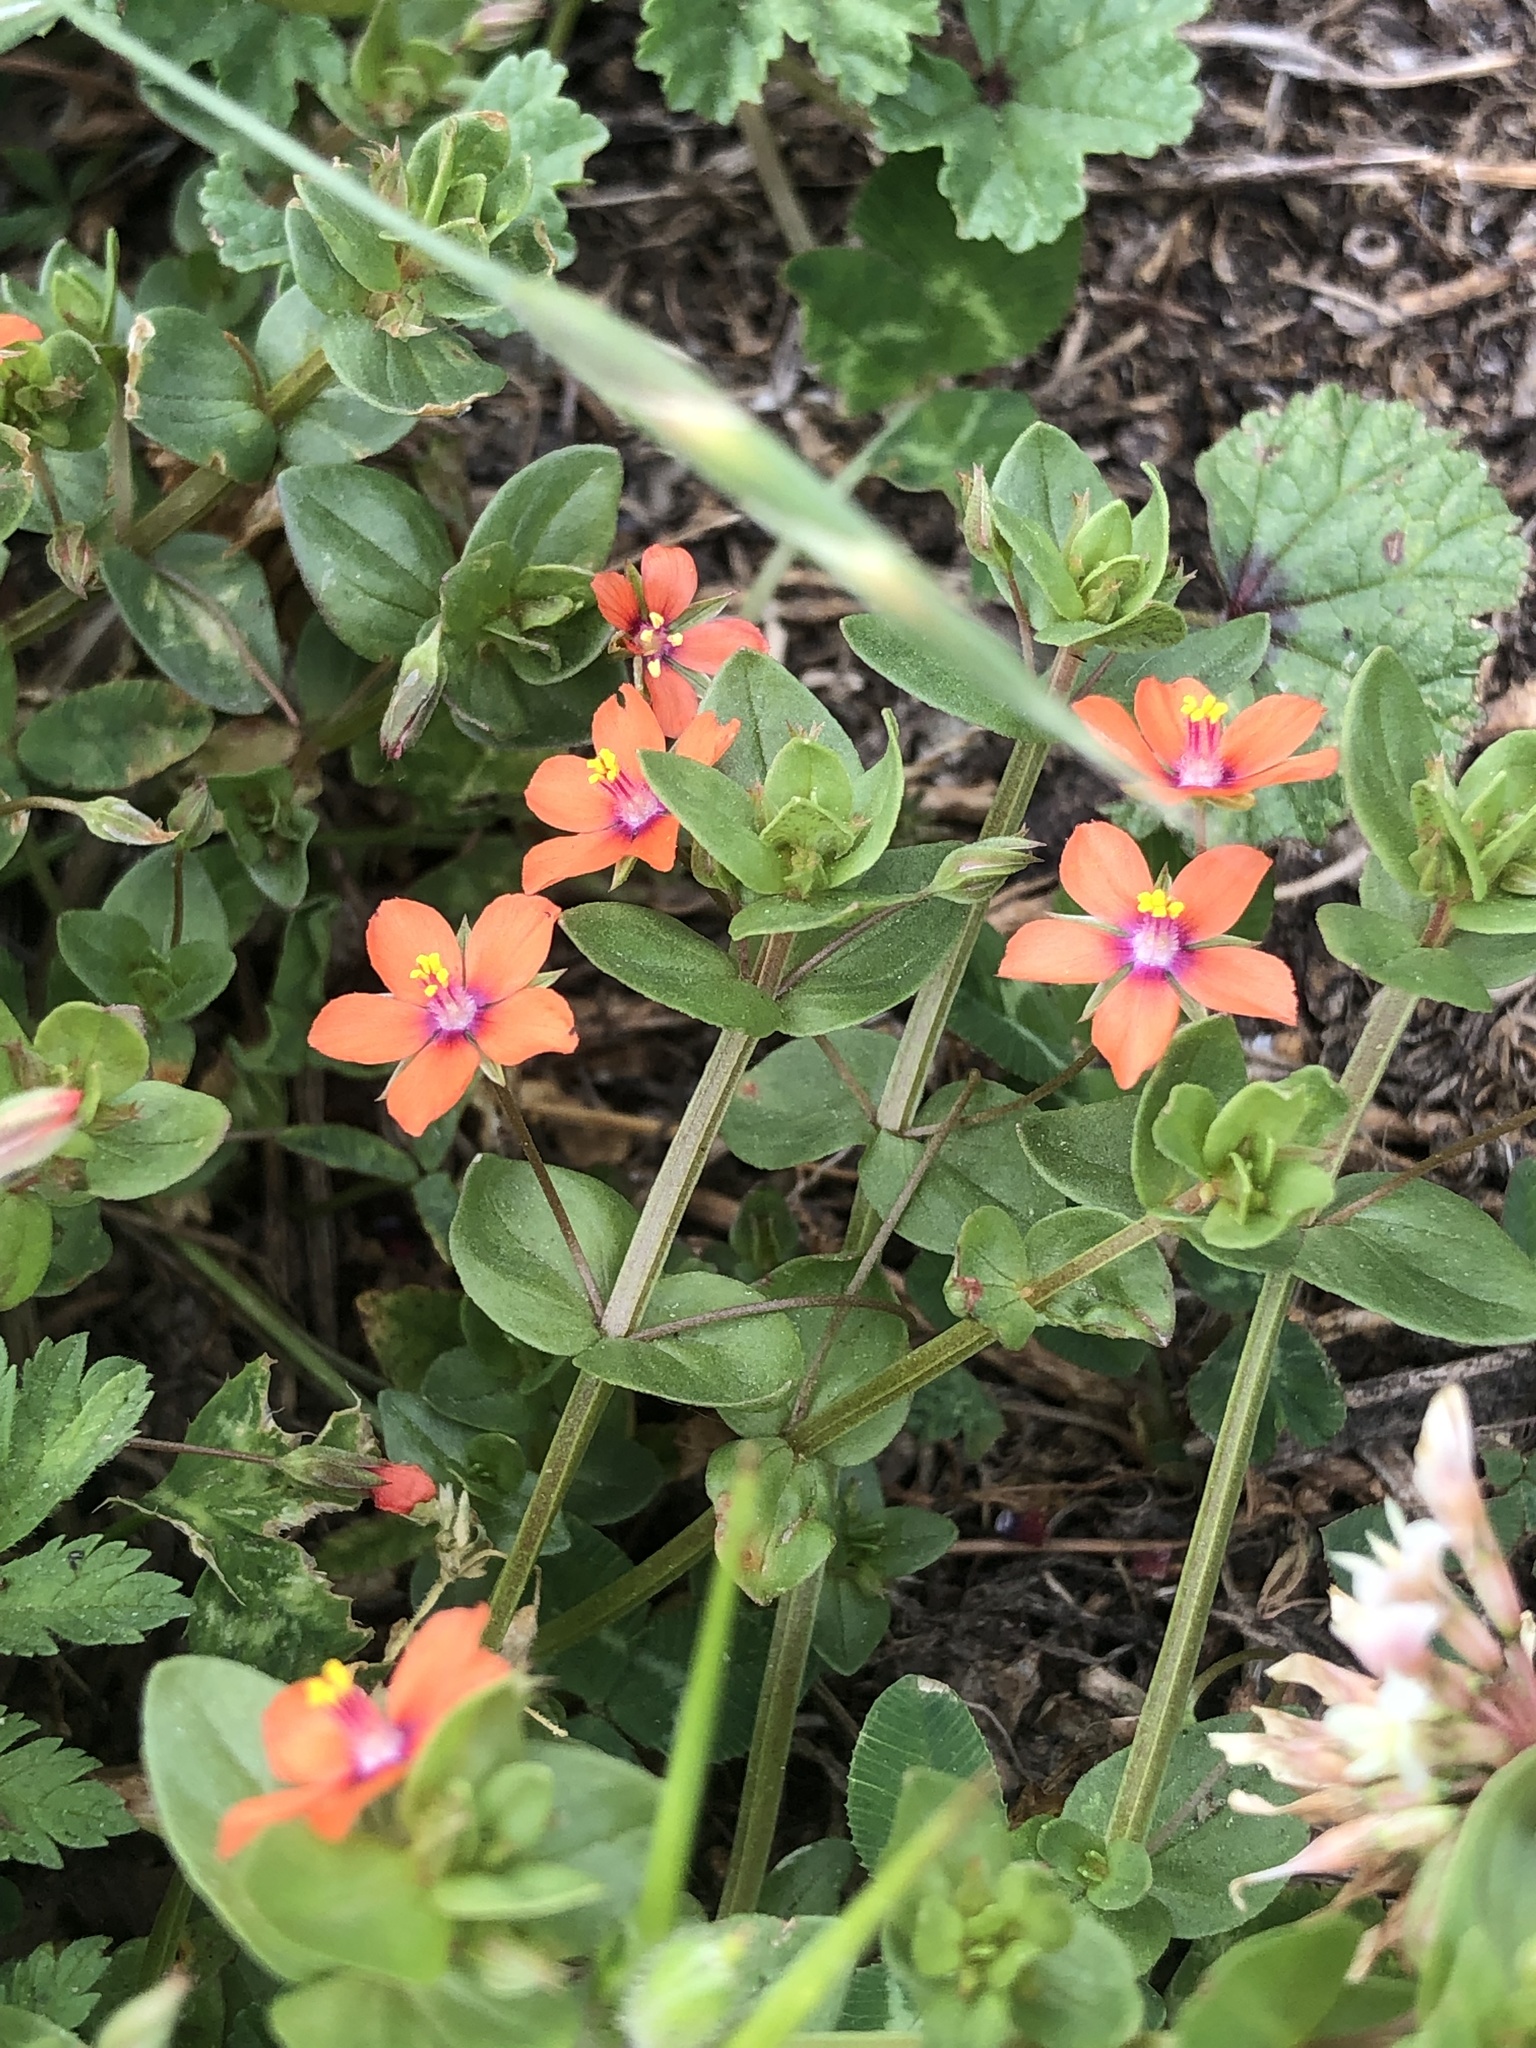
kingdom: Plantae
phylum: Tracheophyta
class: Magnoliopsida
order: Ericales
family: Primulaceae
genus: Lysimachia
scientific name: Lysimachia arvensis
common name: Scarlet pimpernel
